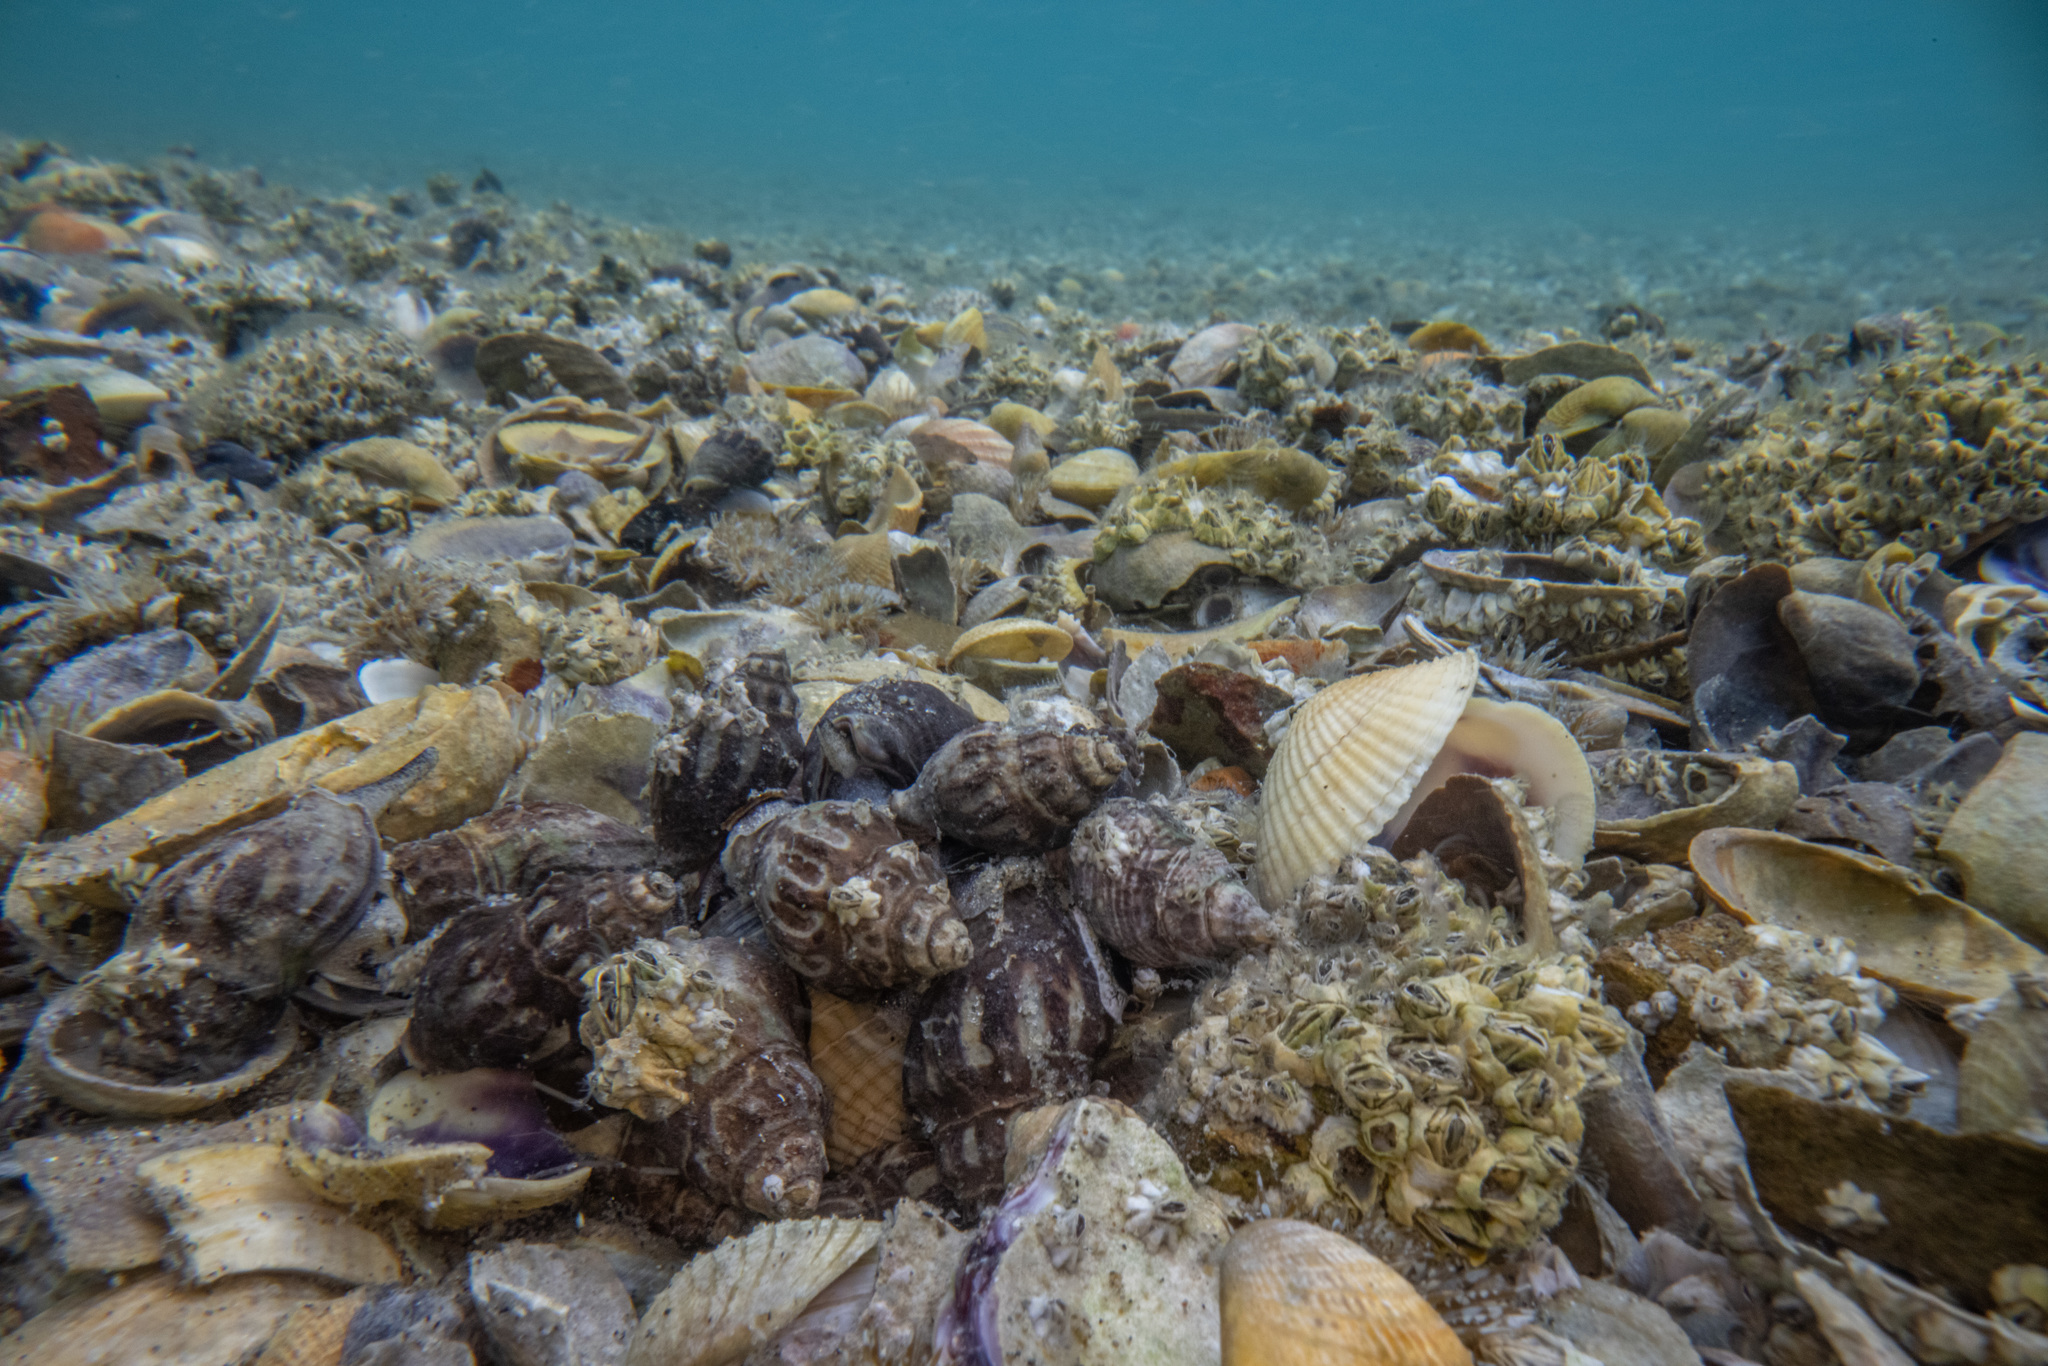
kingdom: Animalia
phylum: Mollusca
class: Gastropoda
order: Neogastropoda
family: Cominellidae
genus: Cominella
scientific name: Cominella glandiformis
